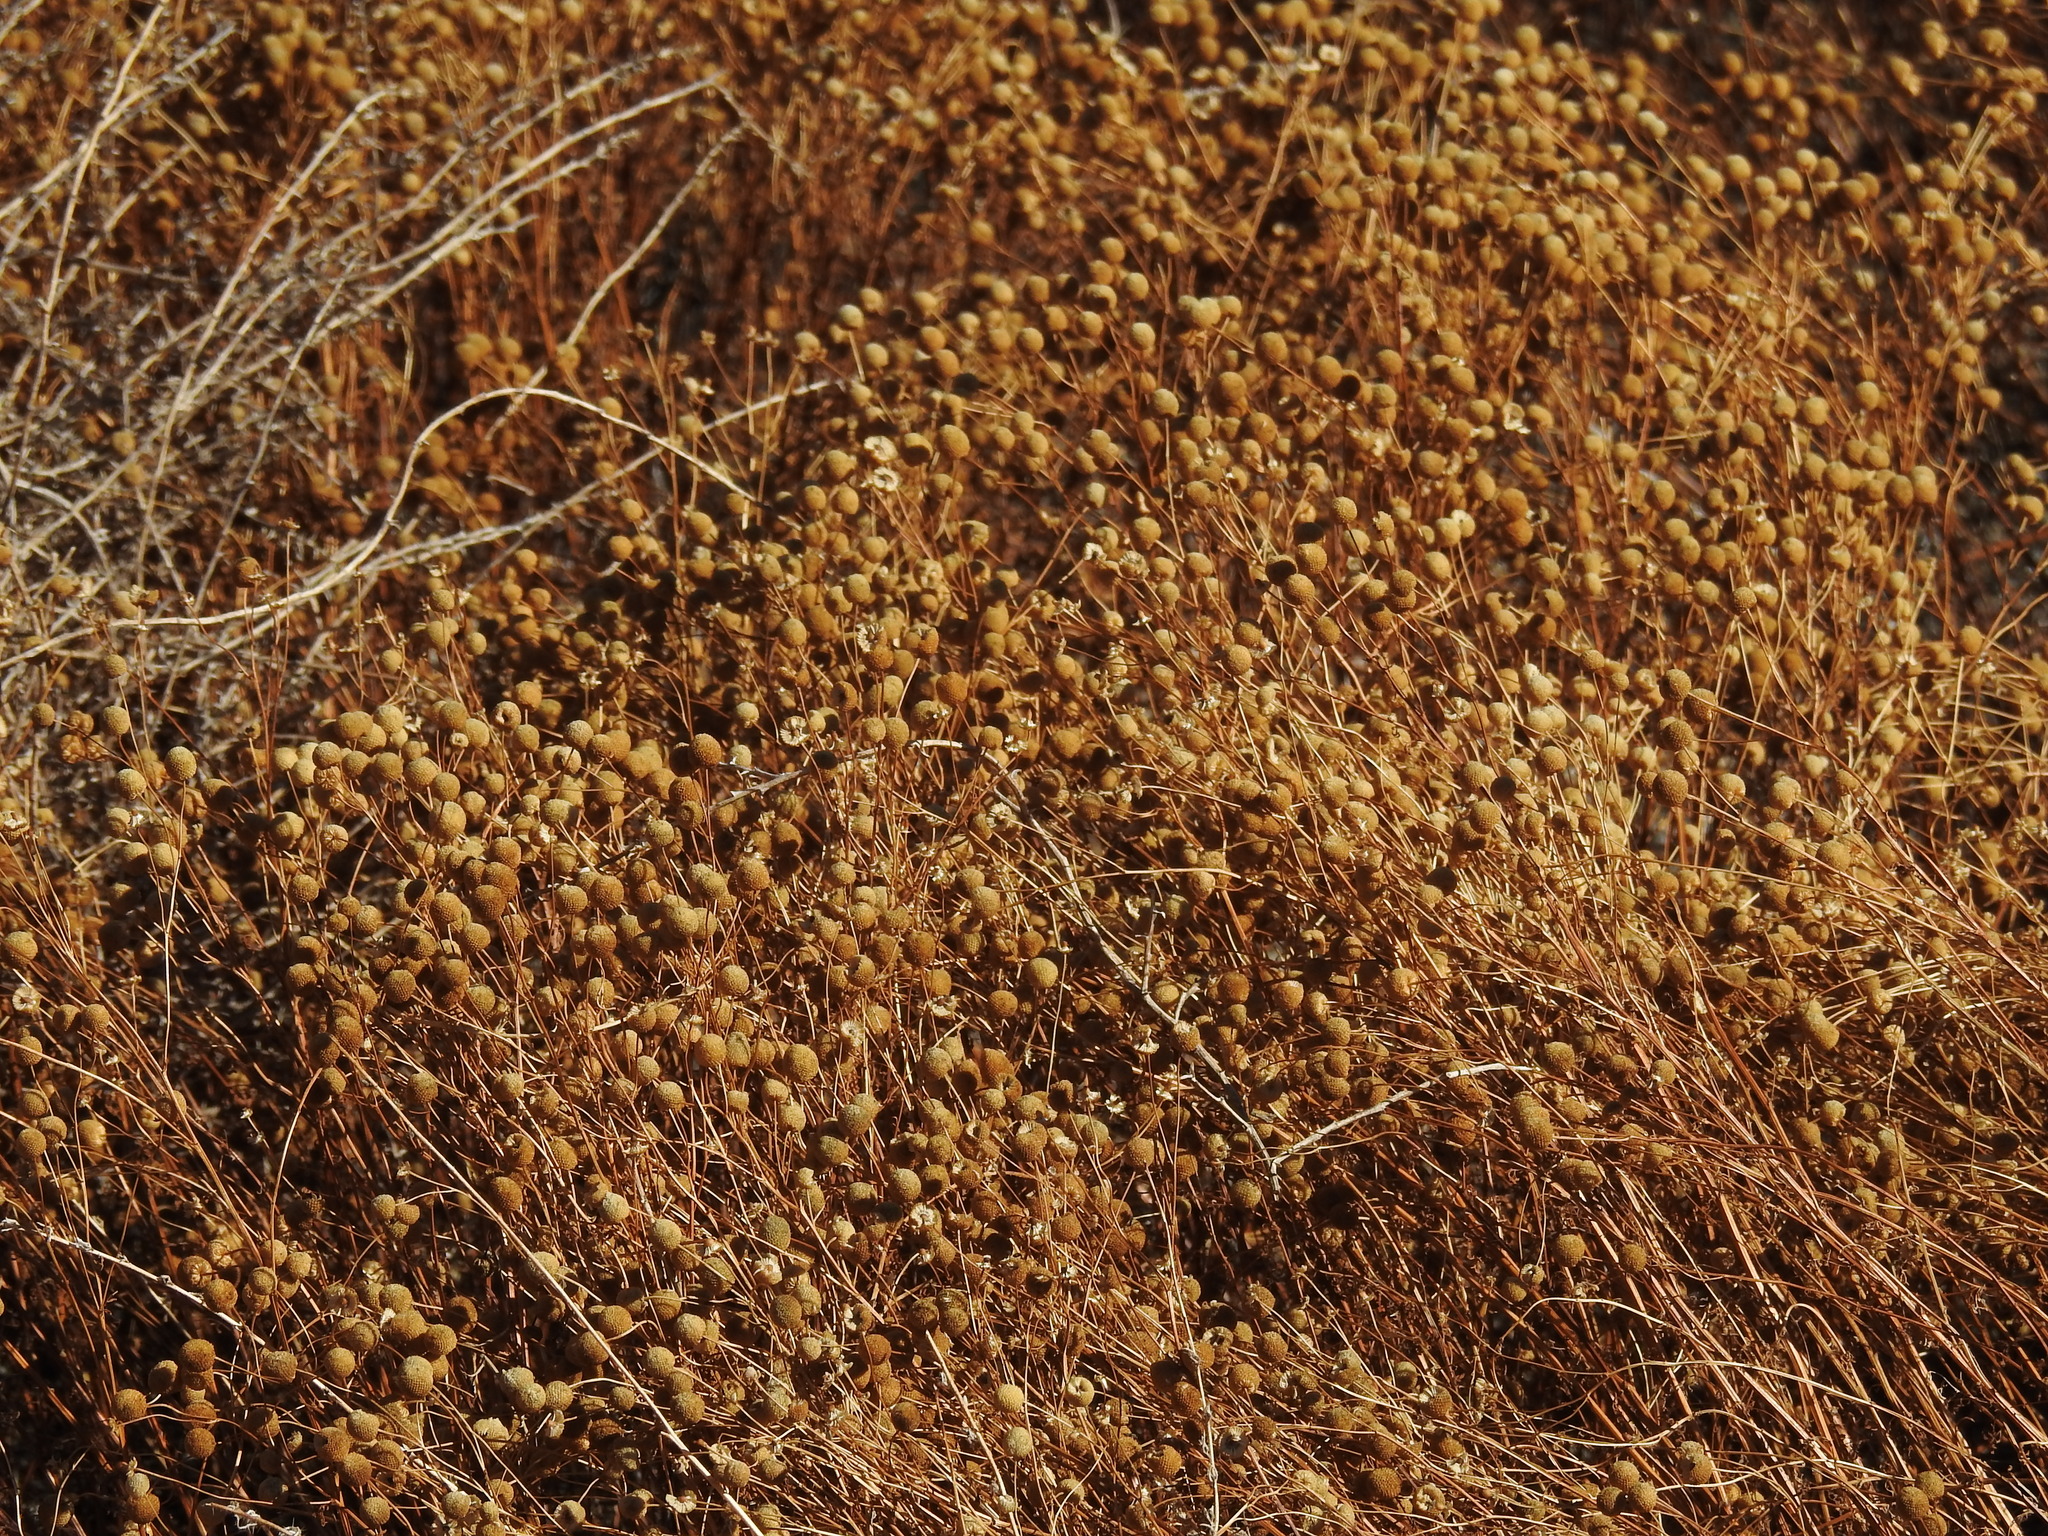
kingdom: Plantae
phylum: Tracheophyta
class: Magnoliopsida
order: Asterales
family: Asteraceae
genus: Oncosiphon
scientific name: Oncosiphon pilulifer
